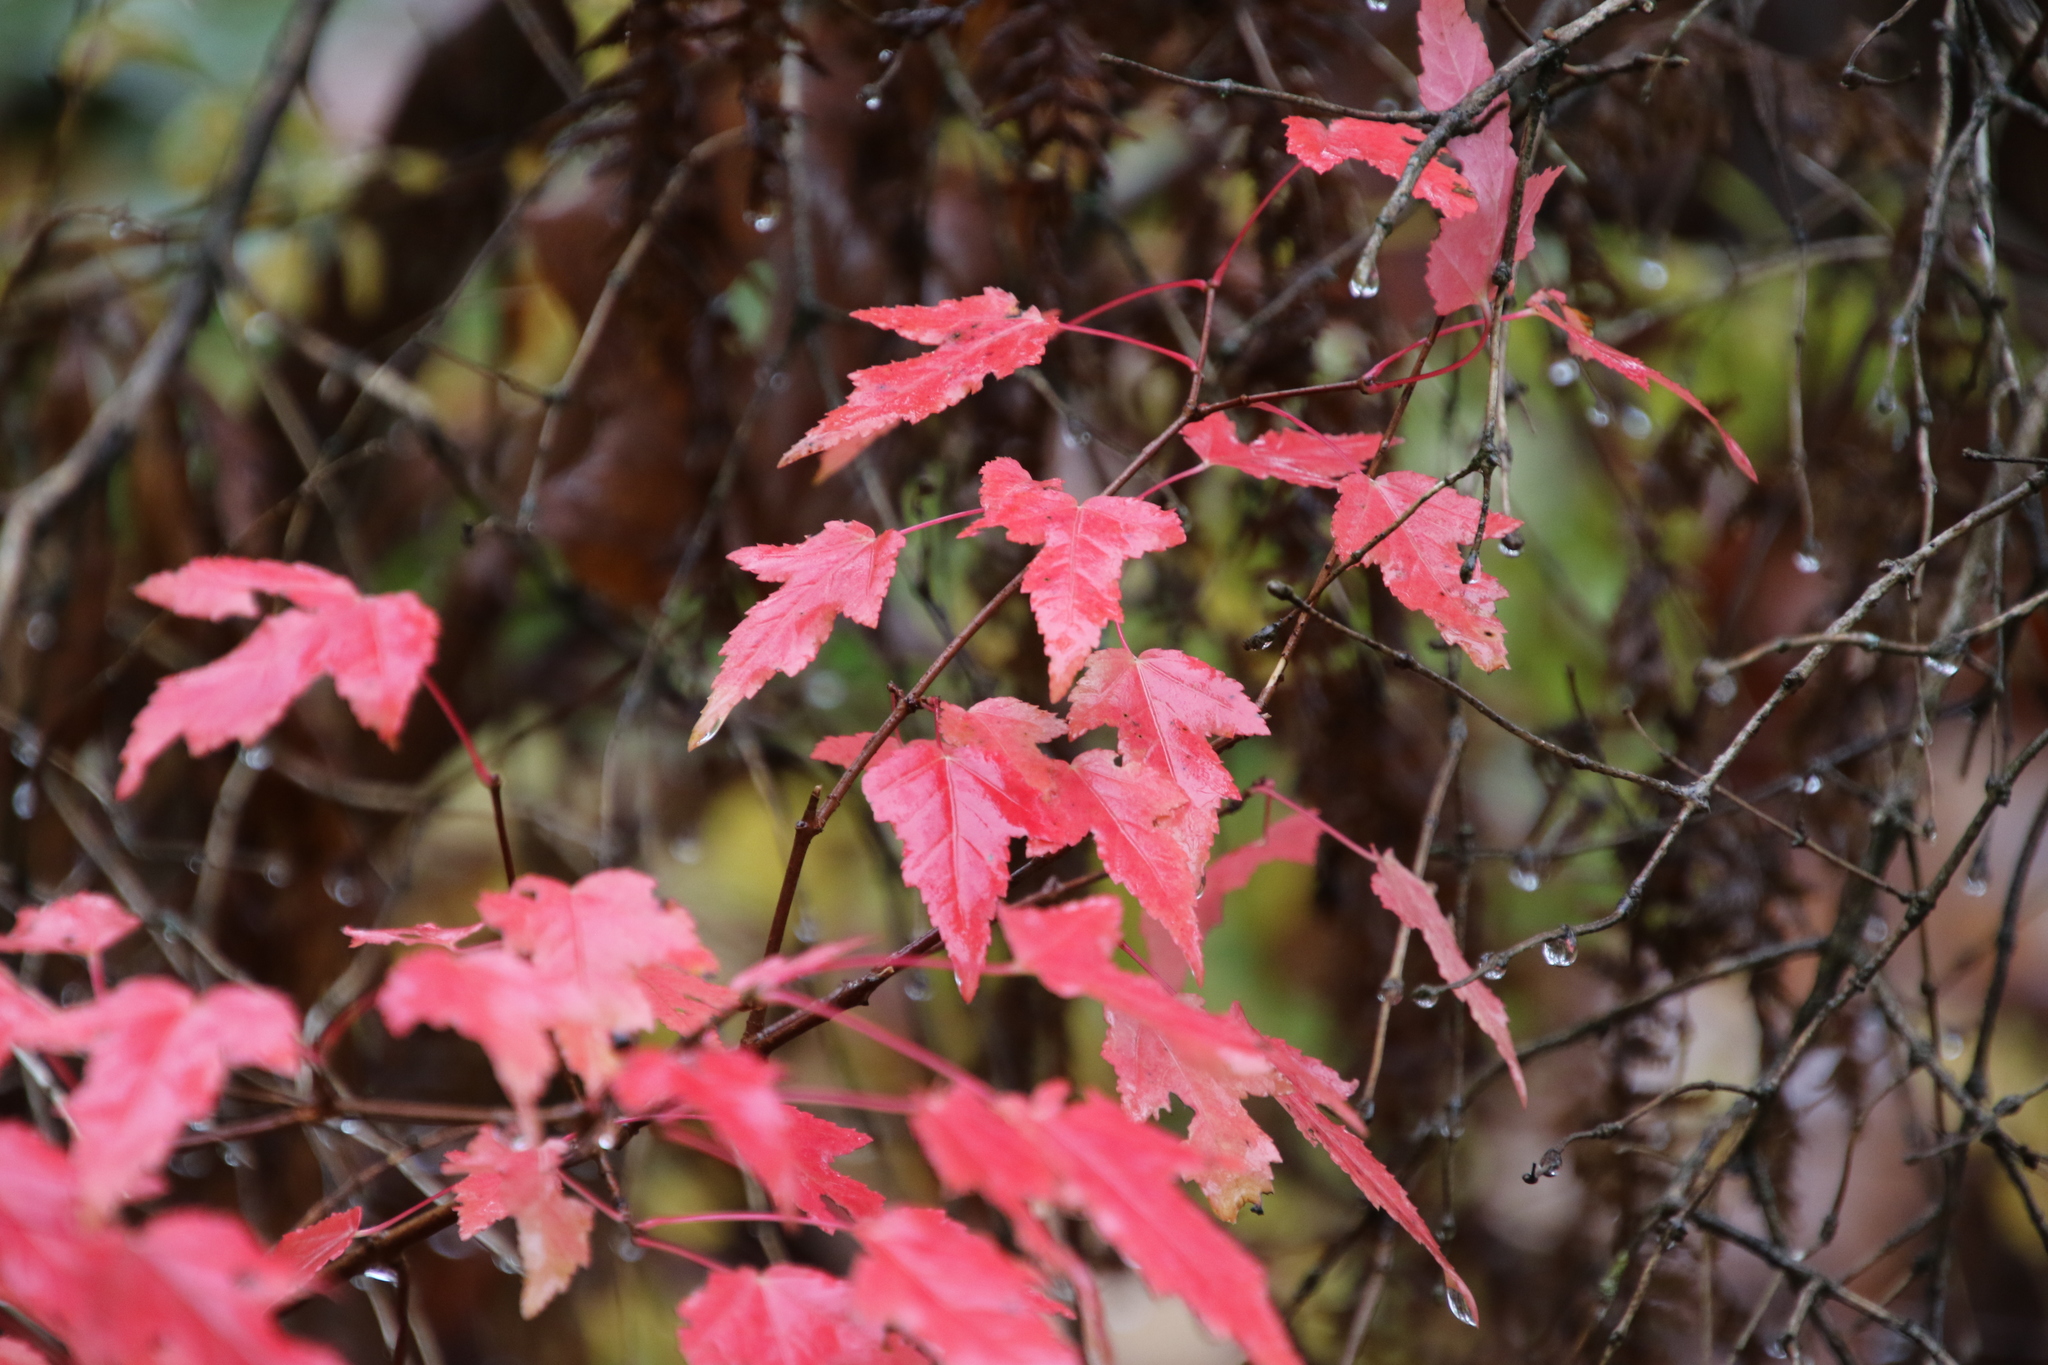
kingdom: Plantae
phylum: Tracheophyta
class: Magnoliopsida
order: Sapindales
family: Sapindaceae
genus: Acer
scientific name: Acer tataricum
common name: Tartar maple
